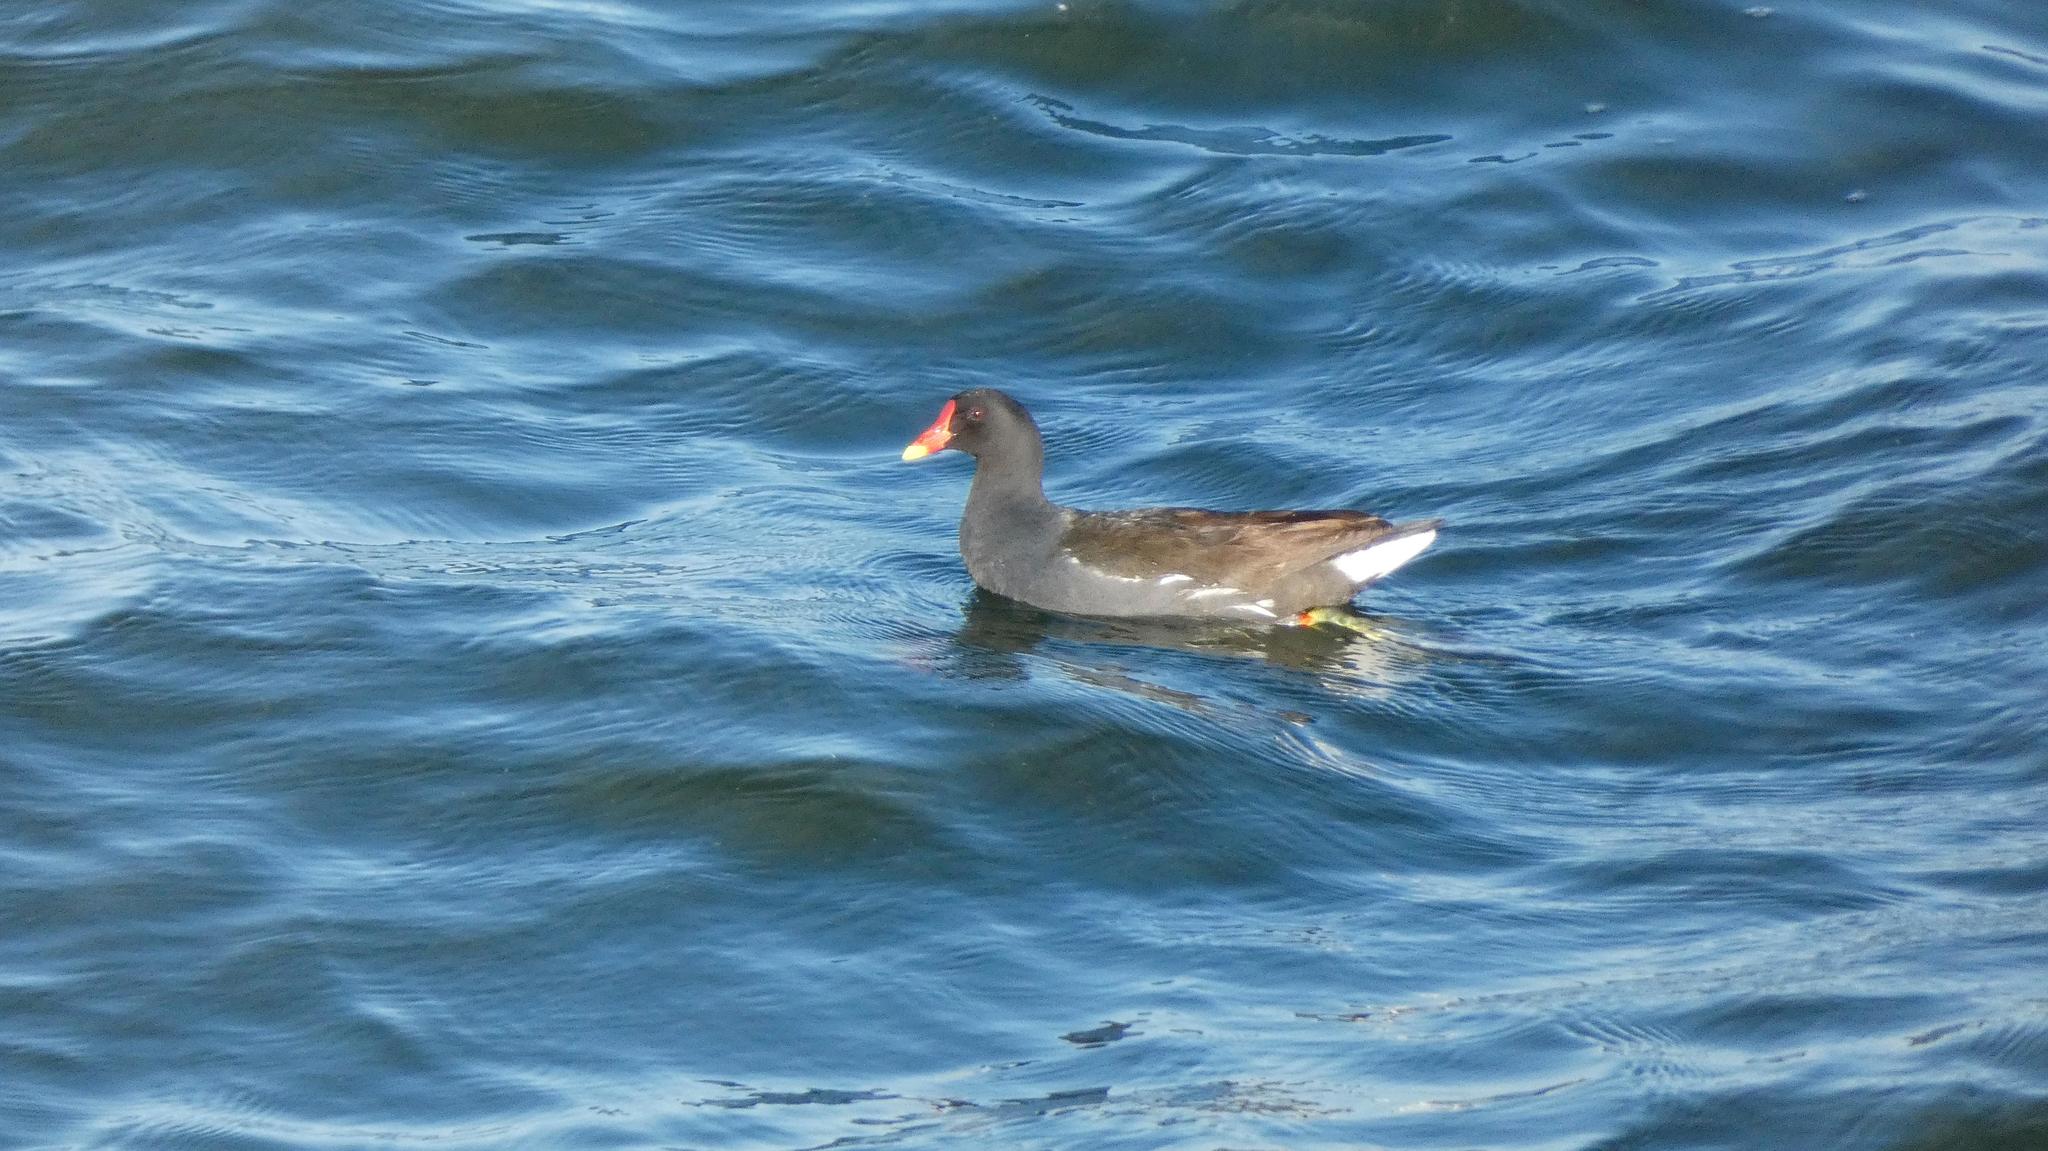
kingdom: Animalia
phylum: Chordata
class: Aves
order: Gruiformes
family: Rallidae
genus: Gallinula
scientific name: Gallinula chloropus
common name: Common moorhen
